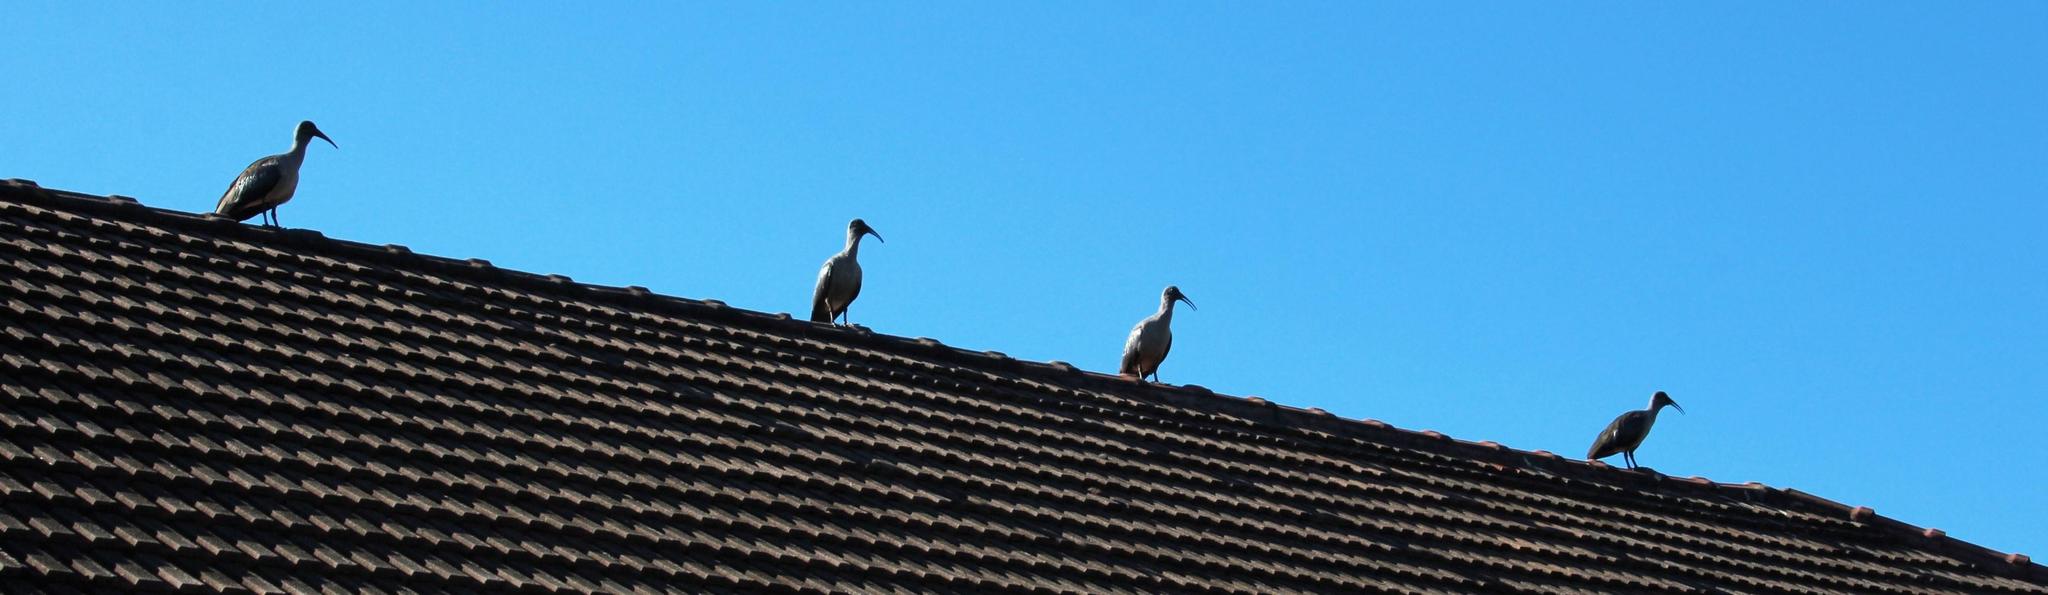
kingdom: Animalia
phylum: Chordata
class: Aves
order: Pelecaniformes
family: Threskiornithidae
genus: Bostrychia
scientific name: Bostrychia hagedash
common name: Hadada ibis
